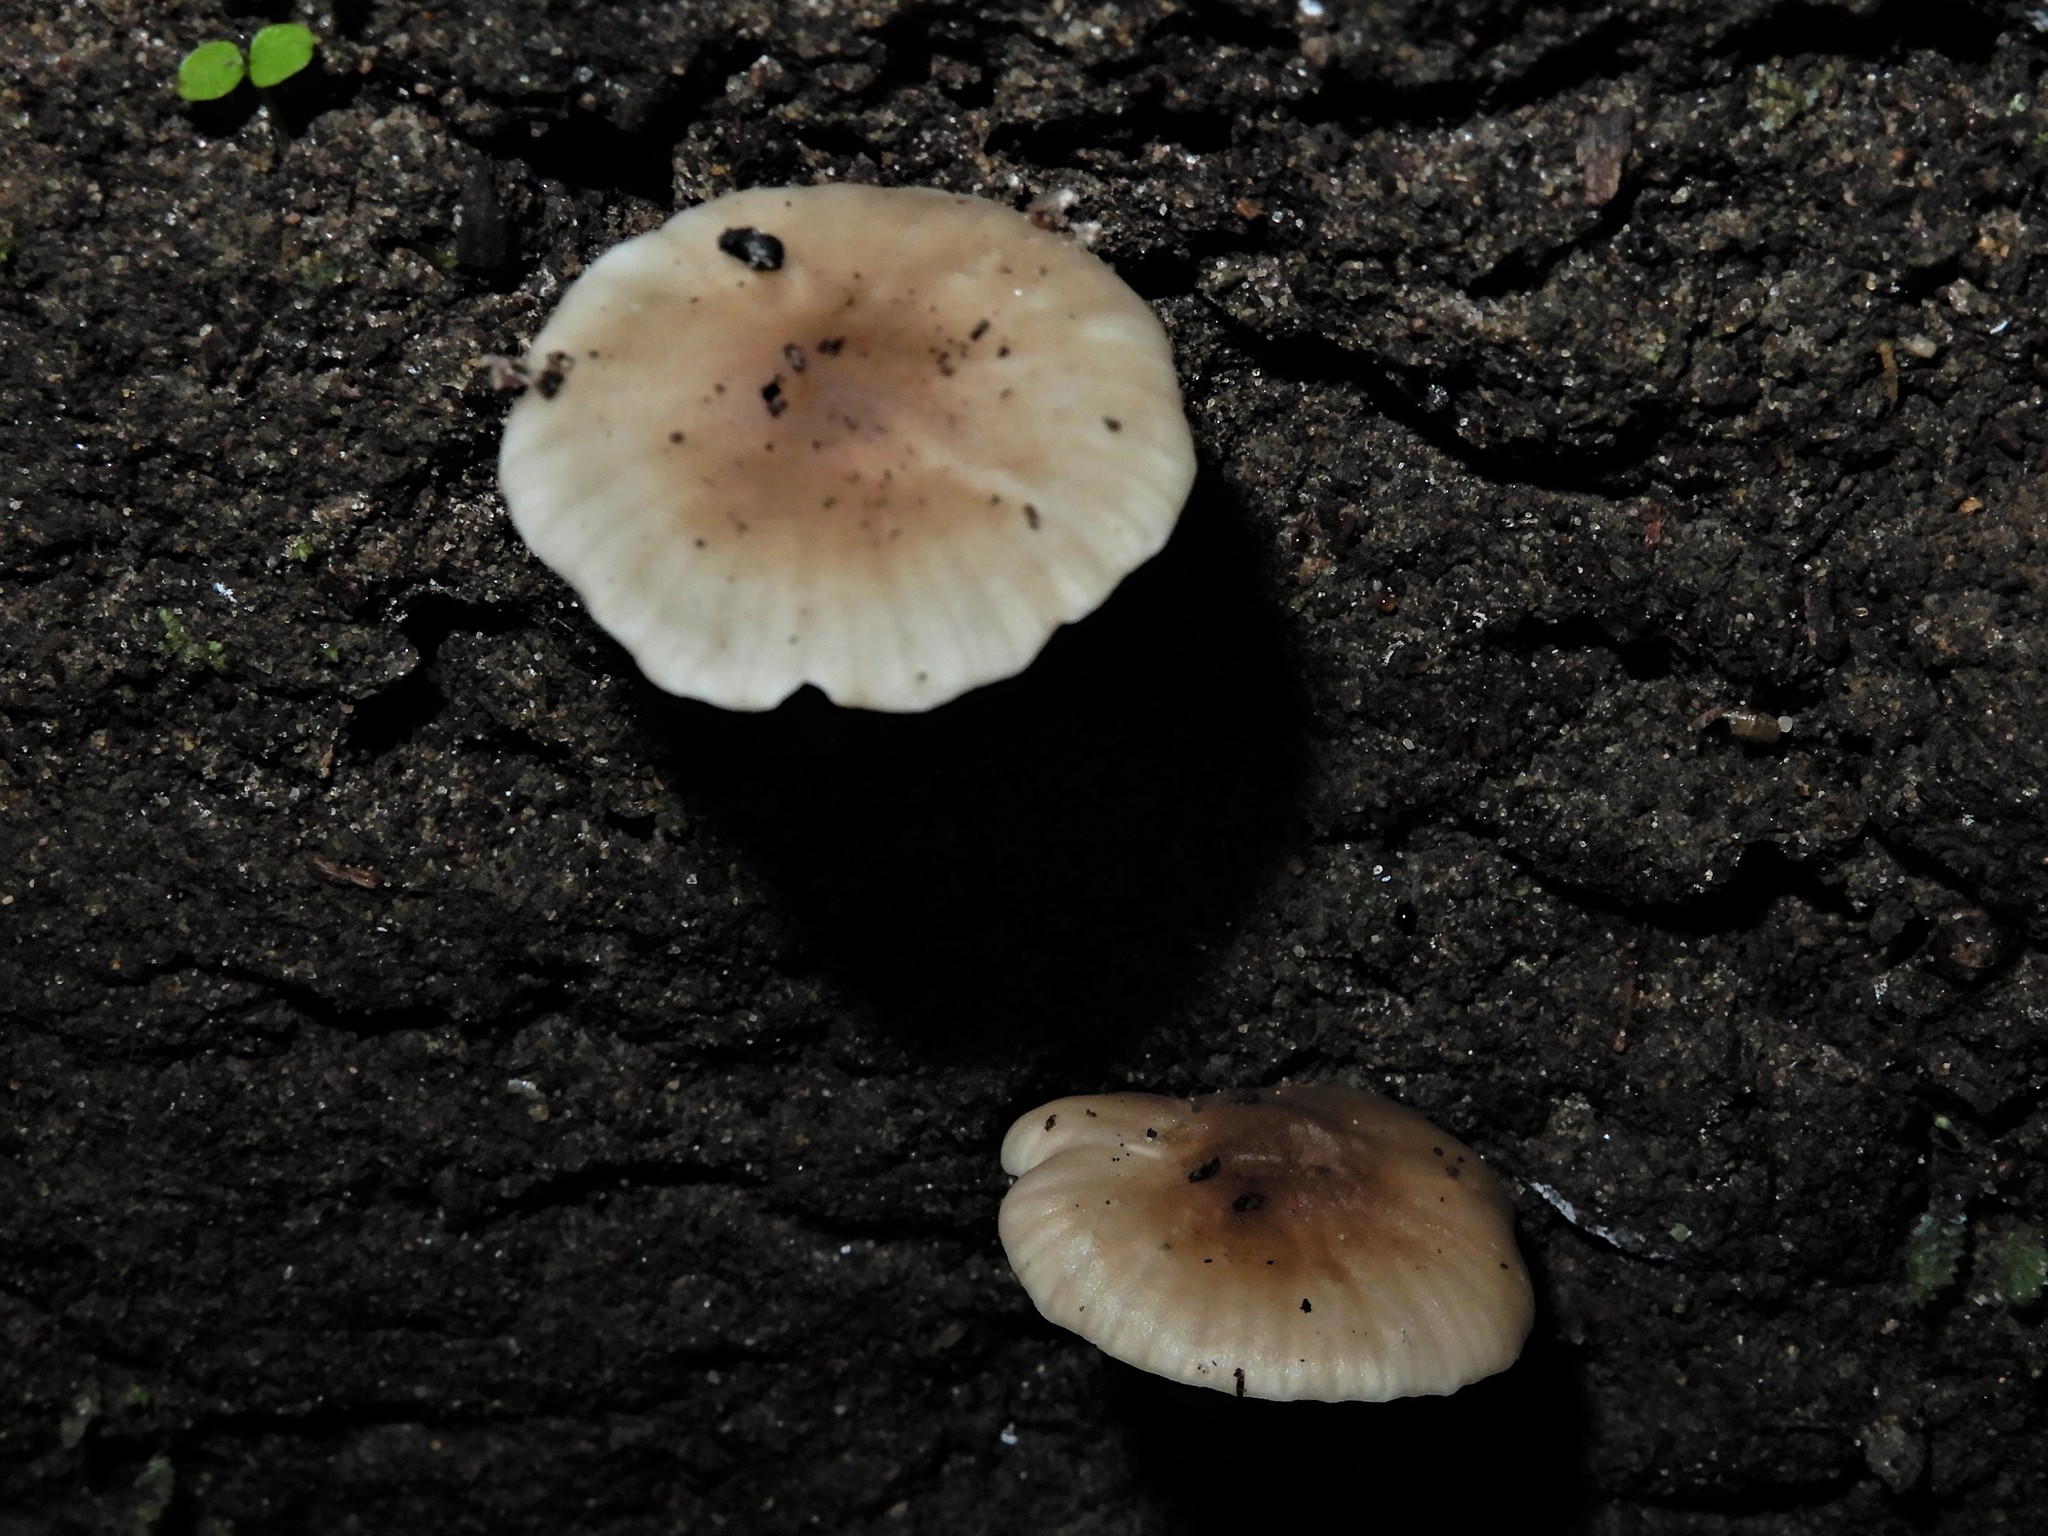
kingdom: Fungi
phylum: Basidiomycota
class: Agaricomycetes
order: Agaricales
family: Hygrophoraceae
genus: Cuphophyllus
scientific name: Cuphophyllus
